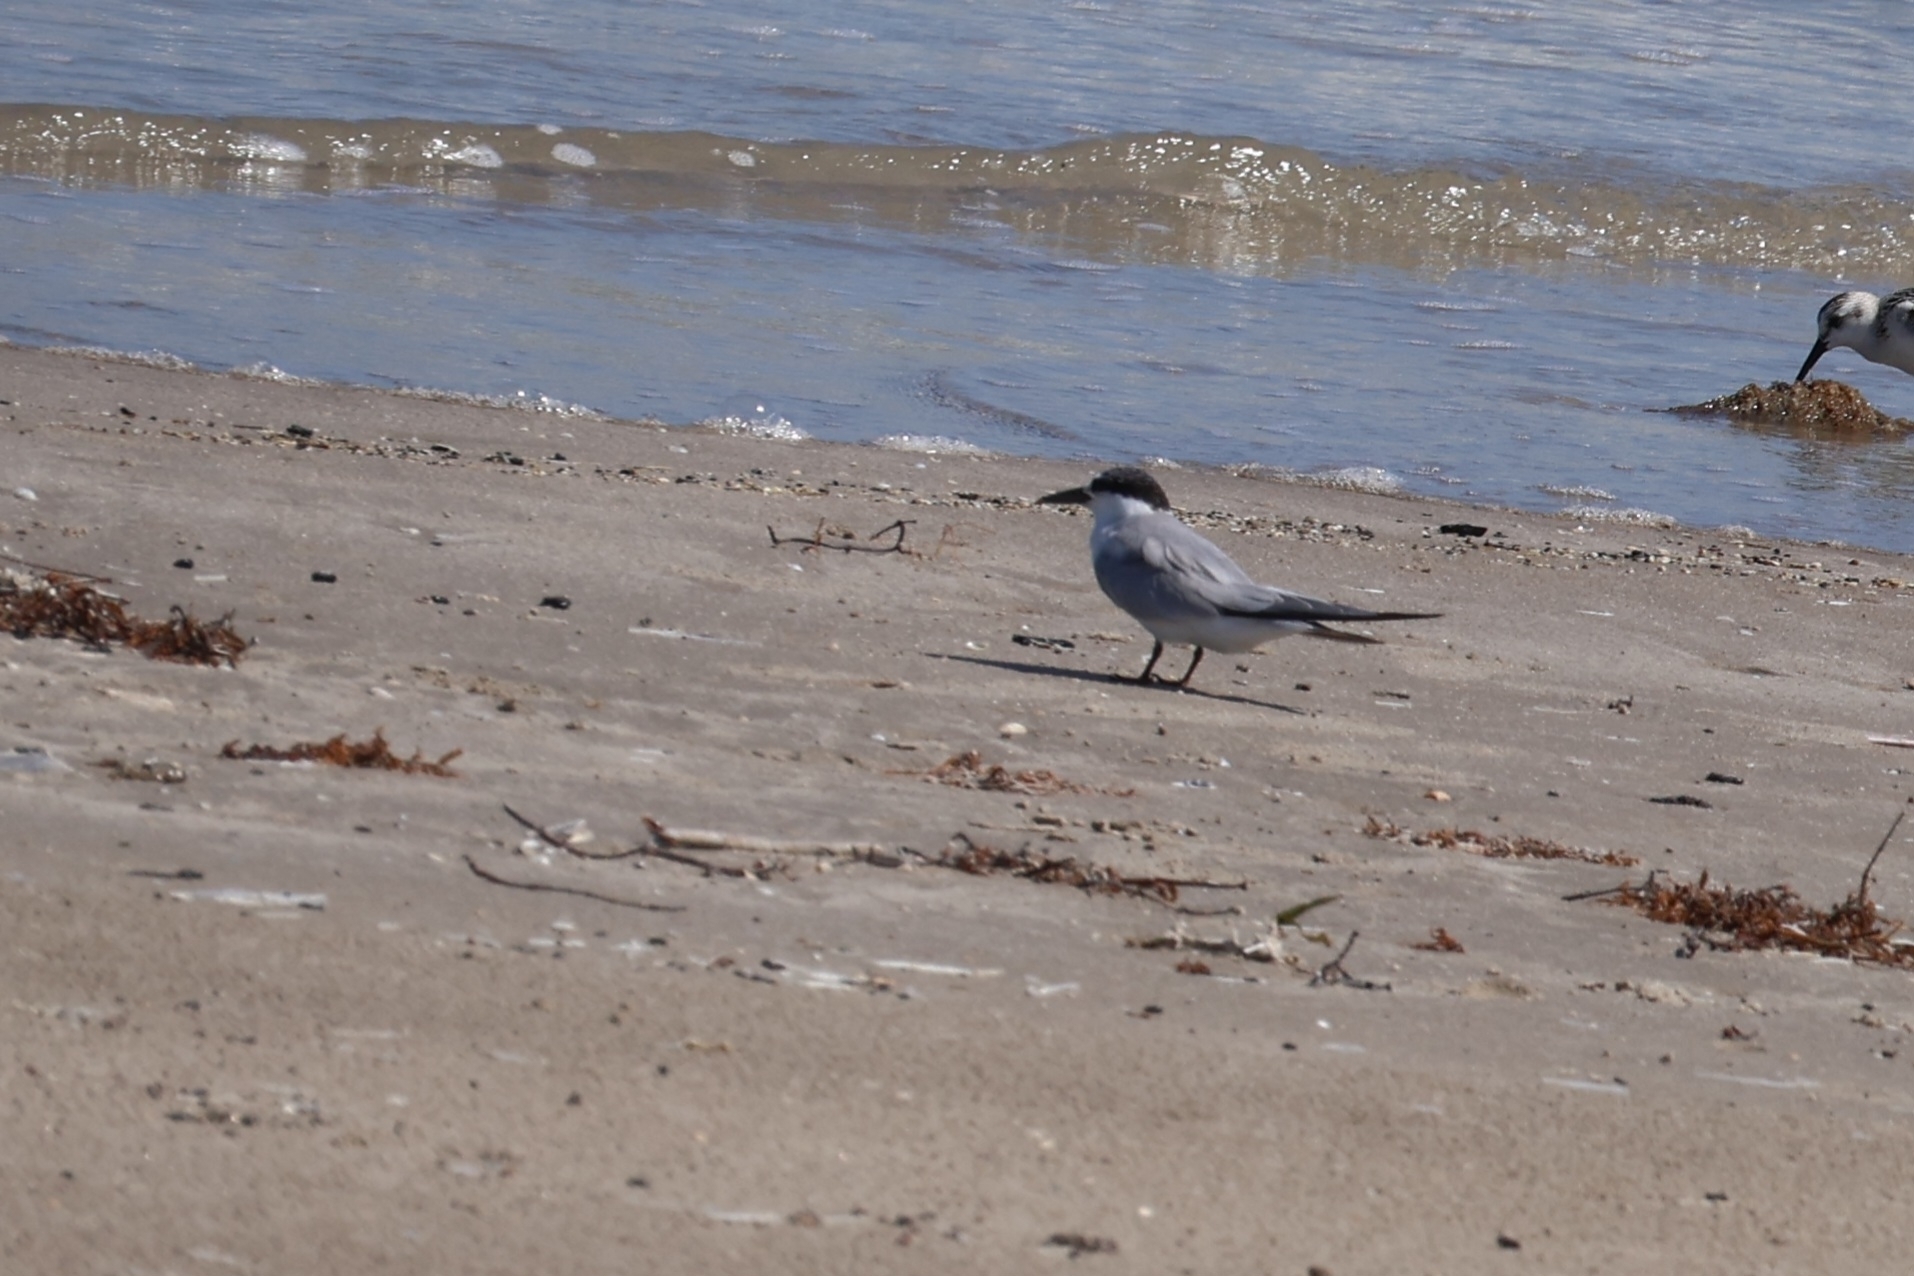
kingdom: Animalia
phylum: Chordata
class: Aves
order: Charadriiformes
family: Laridae
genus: Sternula
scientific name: Sternula antillarum
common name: Least tern
